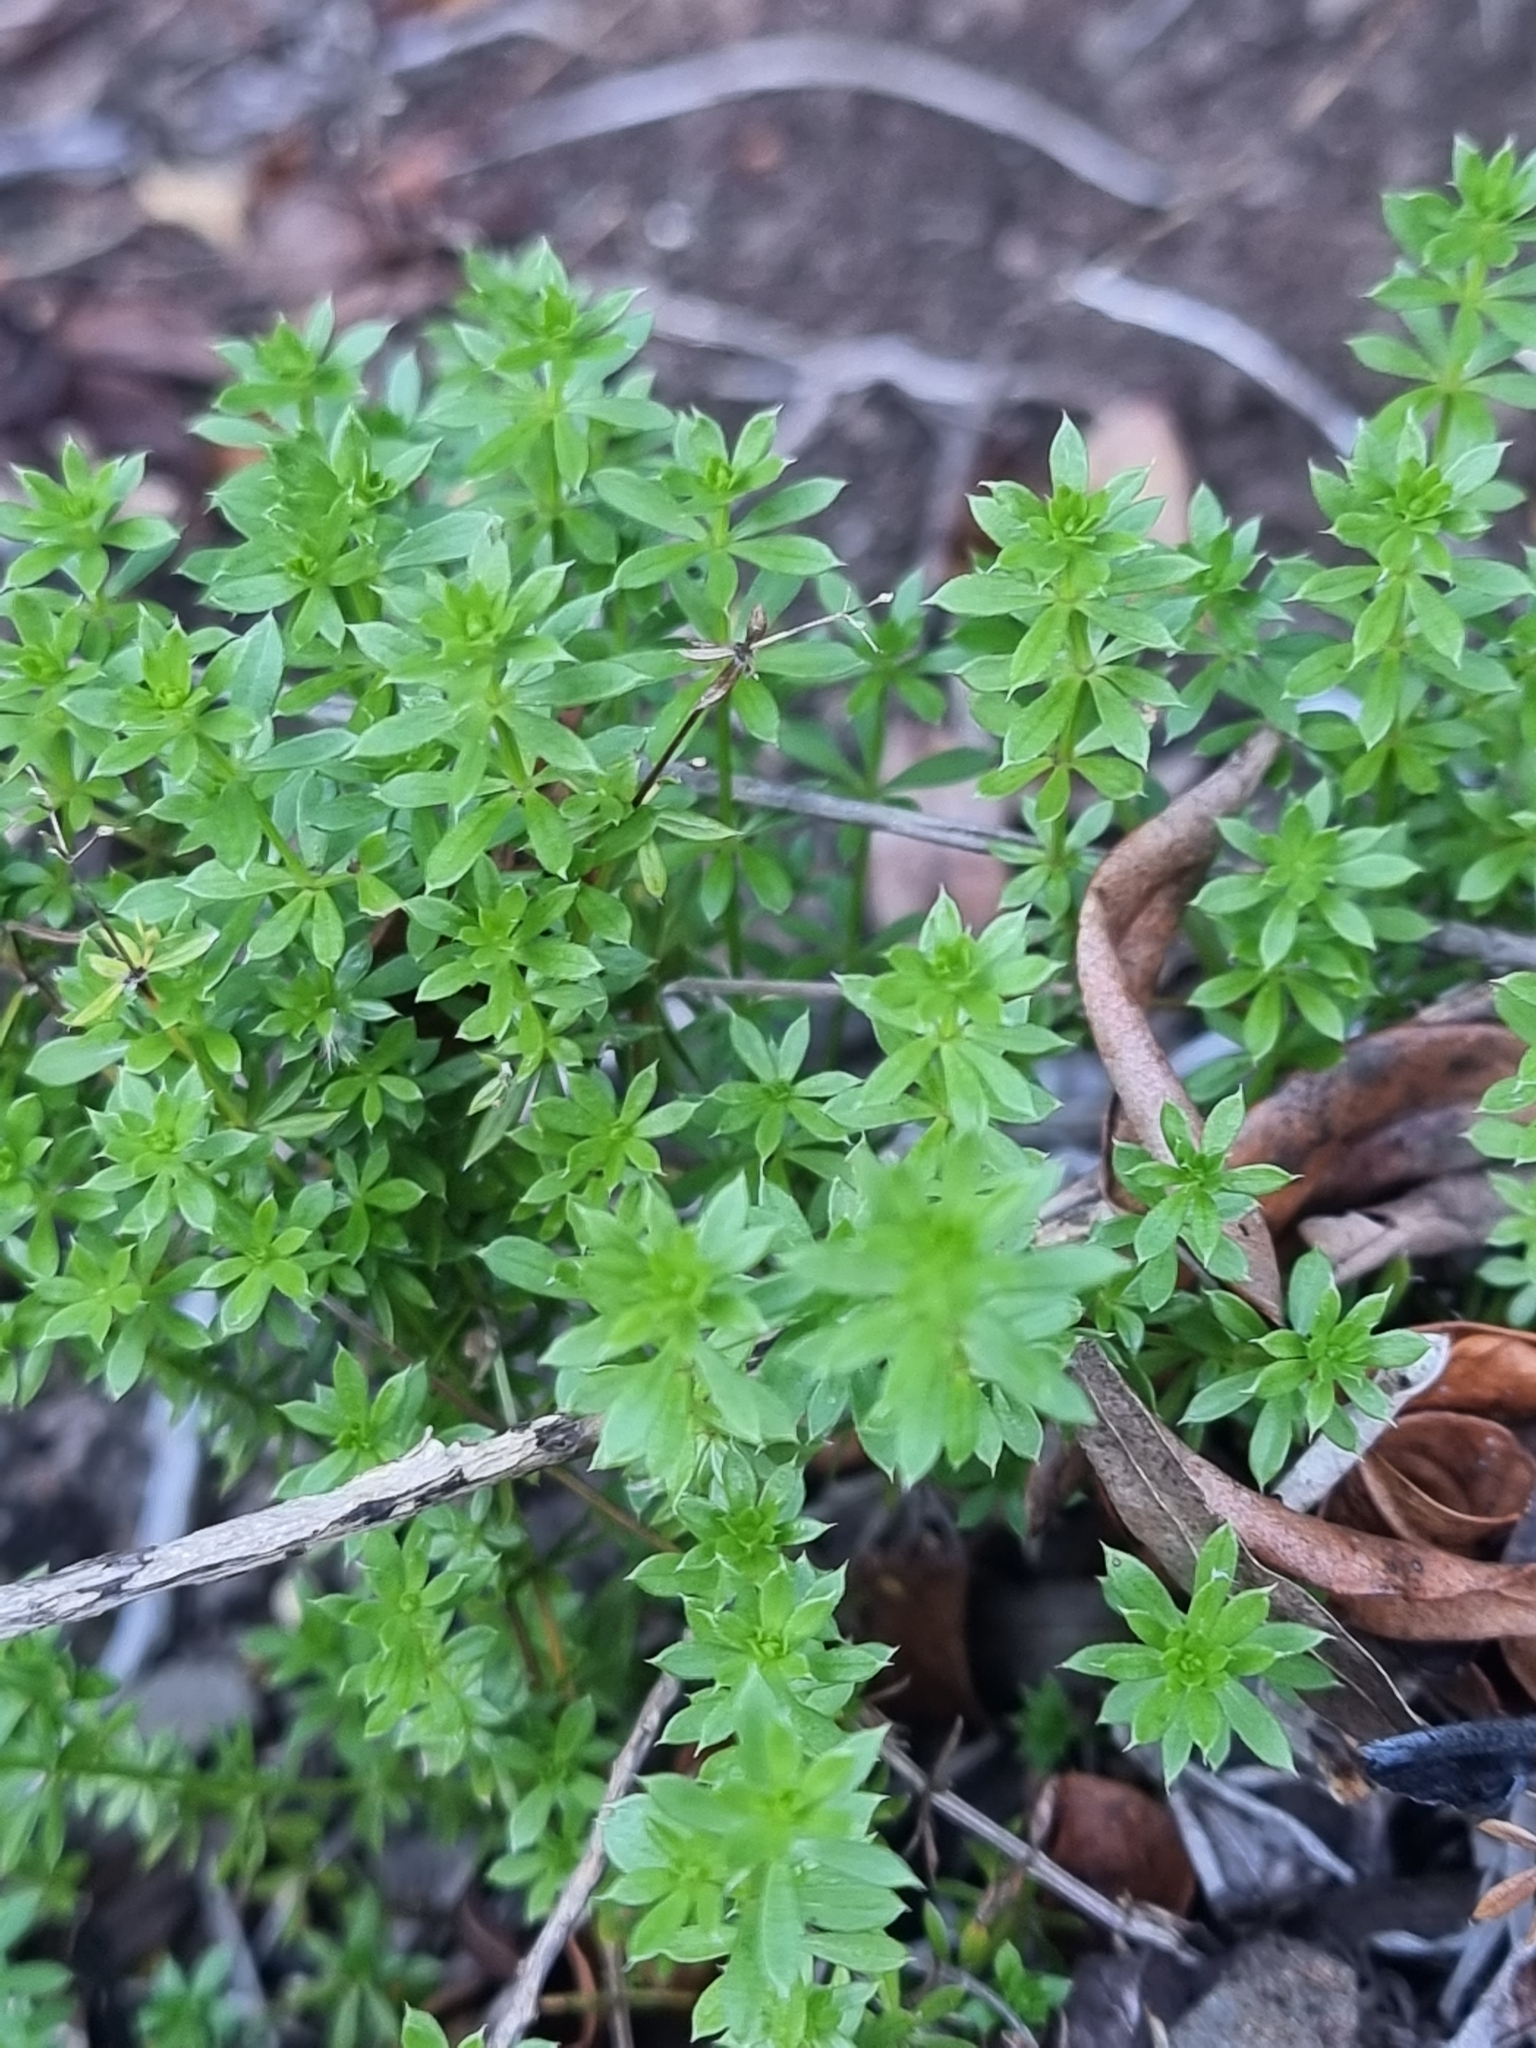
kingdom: Plantae
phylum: Tracheophyta
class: Magnoliopsida
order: Gentianales
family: Rubiaceae
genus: Galium
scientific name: Galium productum
